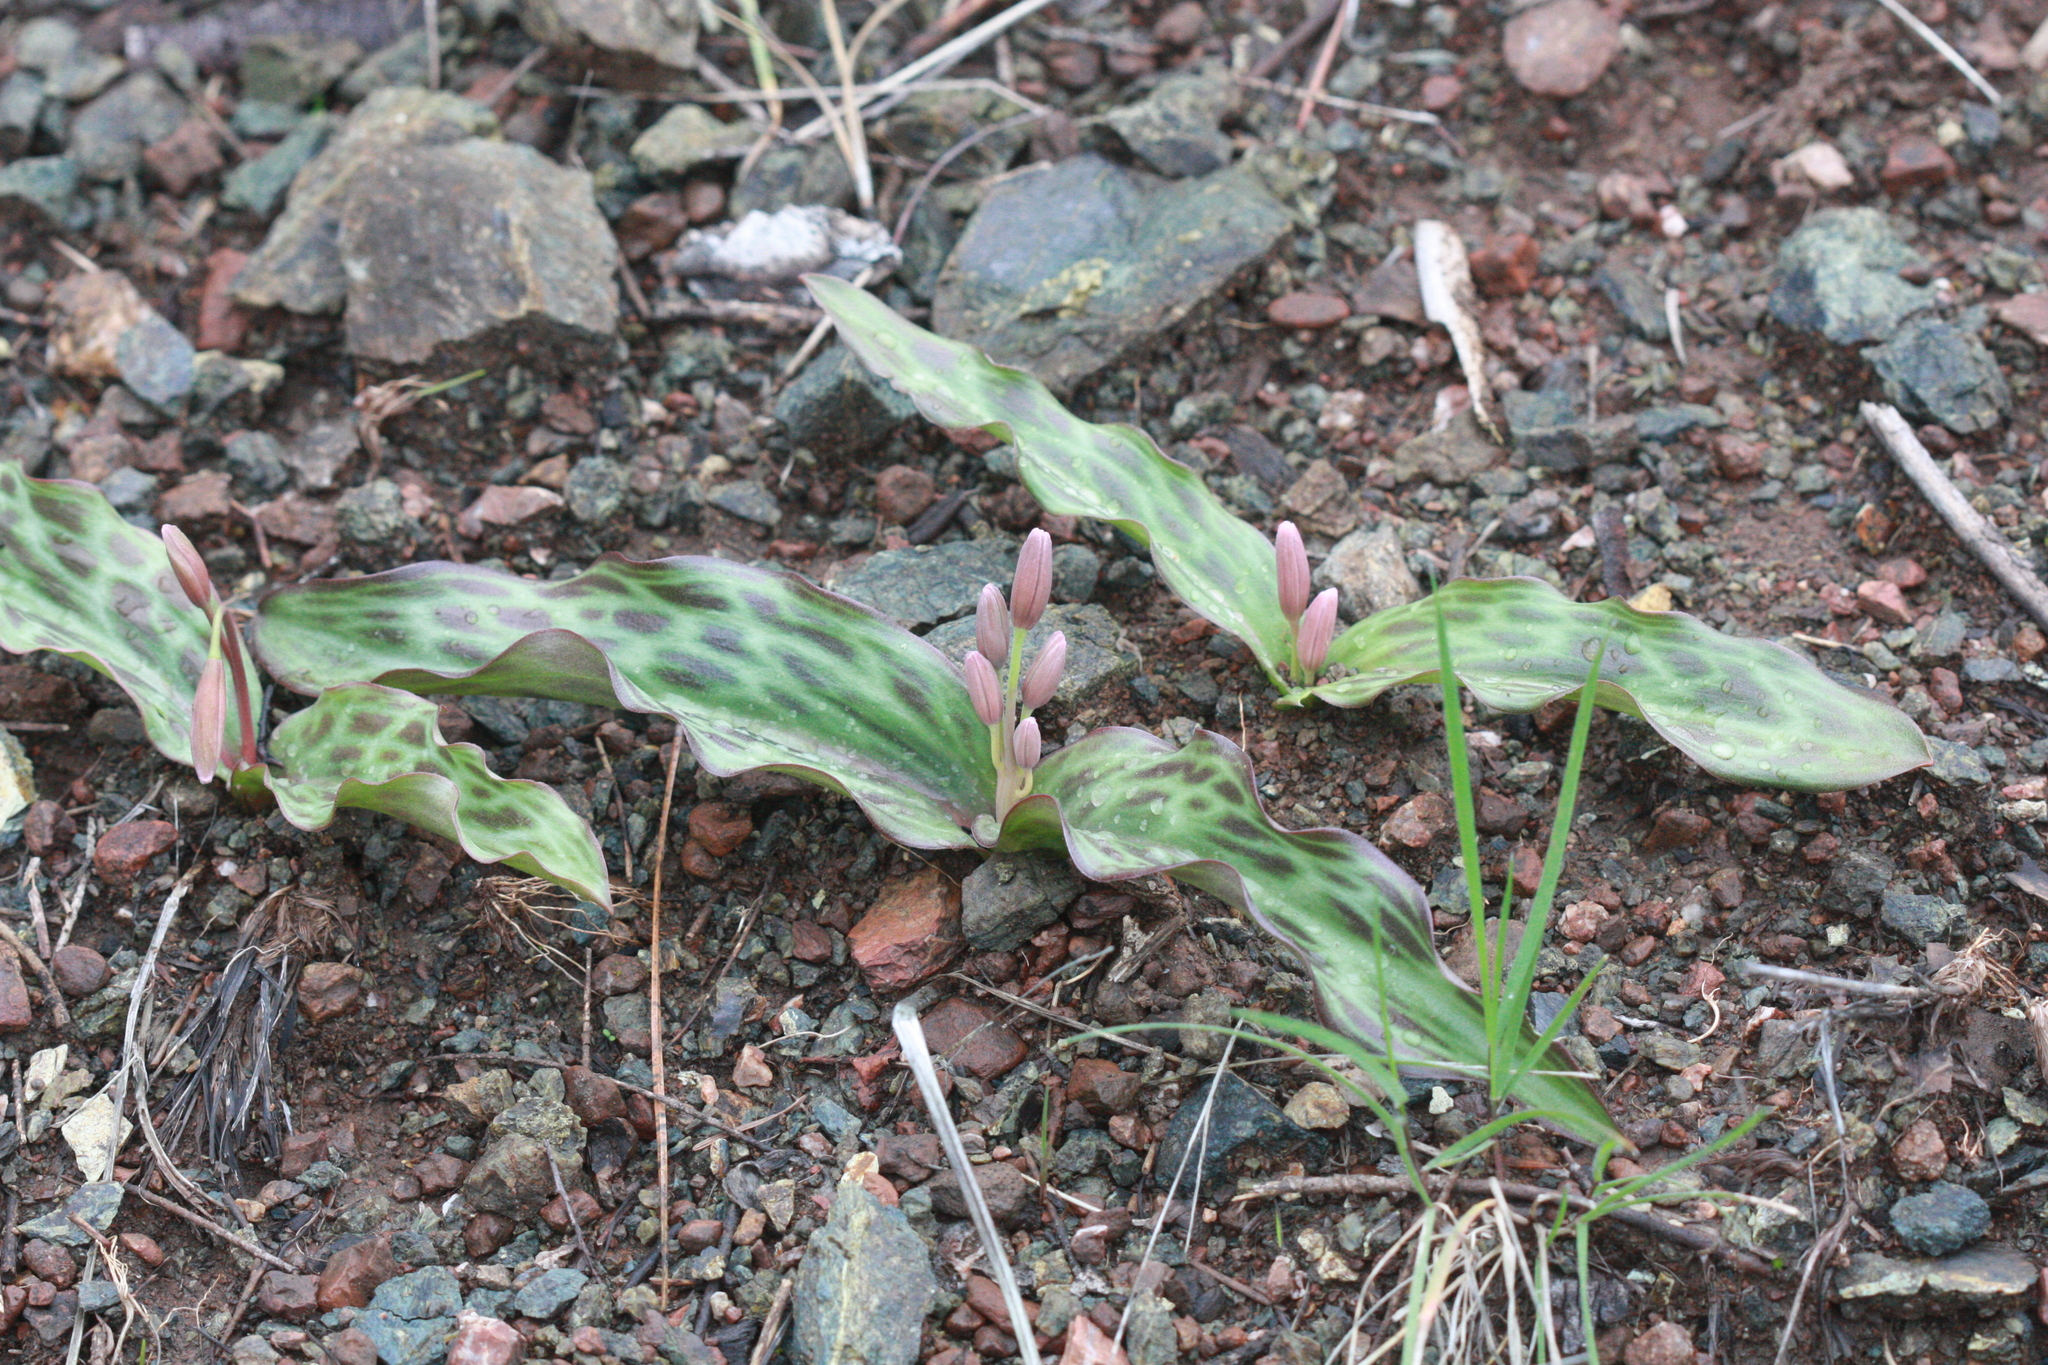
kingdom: Plantae
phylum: Tracheophyta
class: Liliopsida
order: Liliales
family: Liliaceae
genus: Erythronium
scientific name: Erythronium helenae
